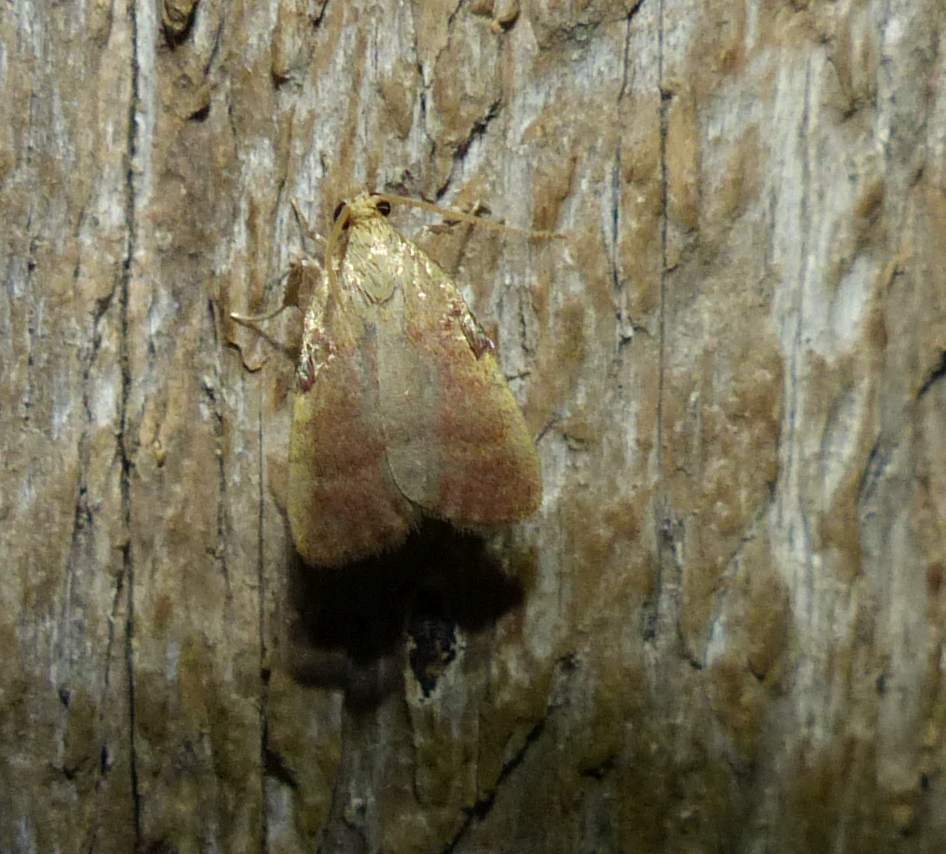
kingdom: Animalia
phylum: Arthropoda
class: Insecta
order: Lepidoptera
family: Pyralidae
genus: Condylolomia
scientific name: Condylolomia participialis
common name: Drab condylolomia moth
